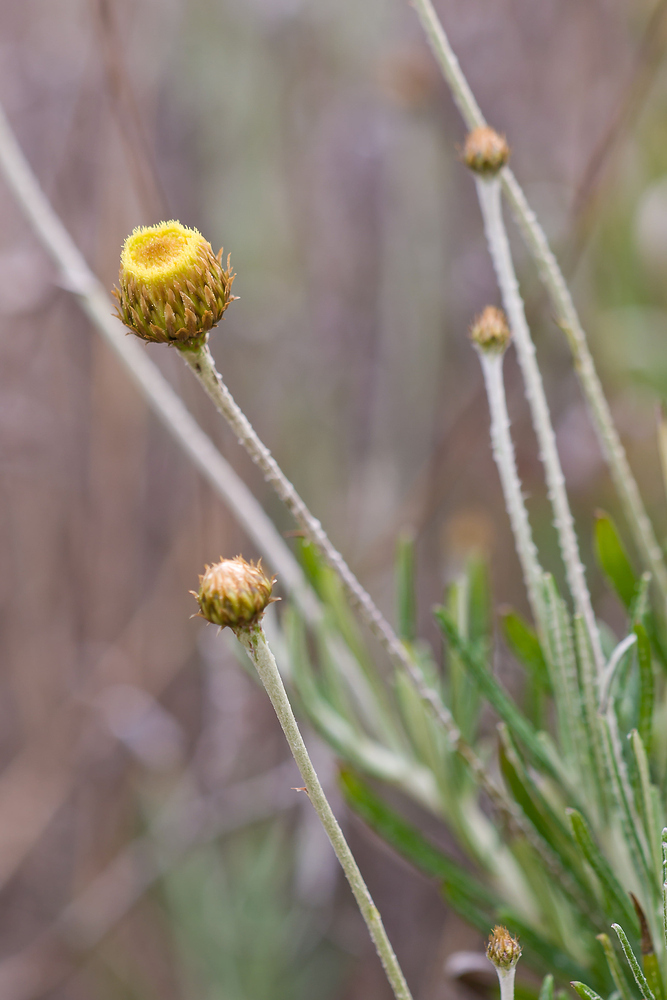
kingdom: Plantae
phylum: Tracheophyta
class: Magnoliopsida
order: Asterales
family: Asteraceae
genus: Phagnalon
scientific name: Phagnalon saxatile
